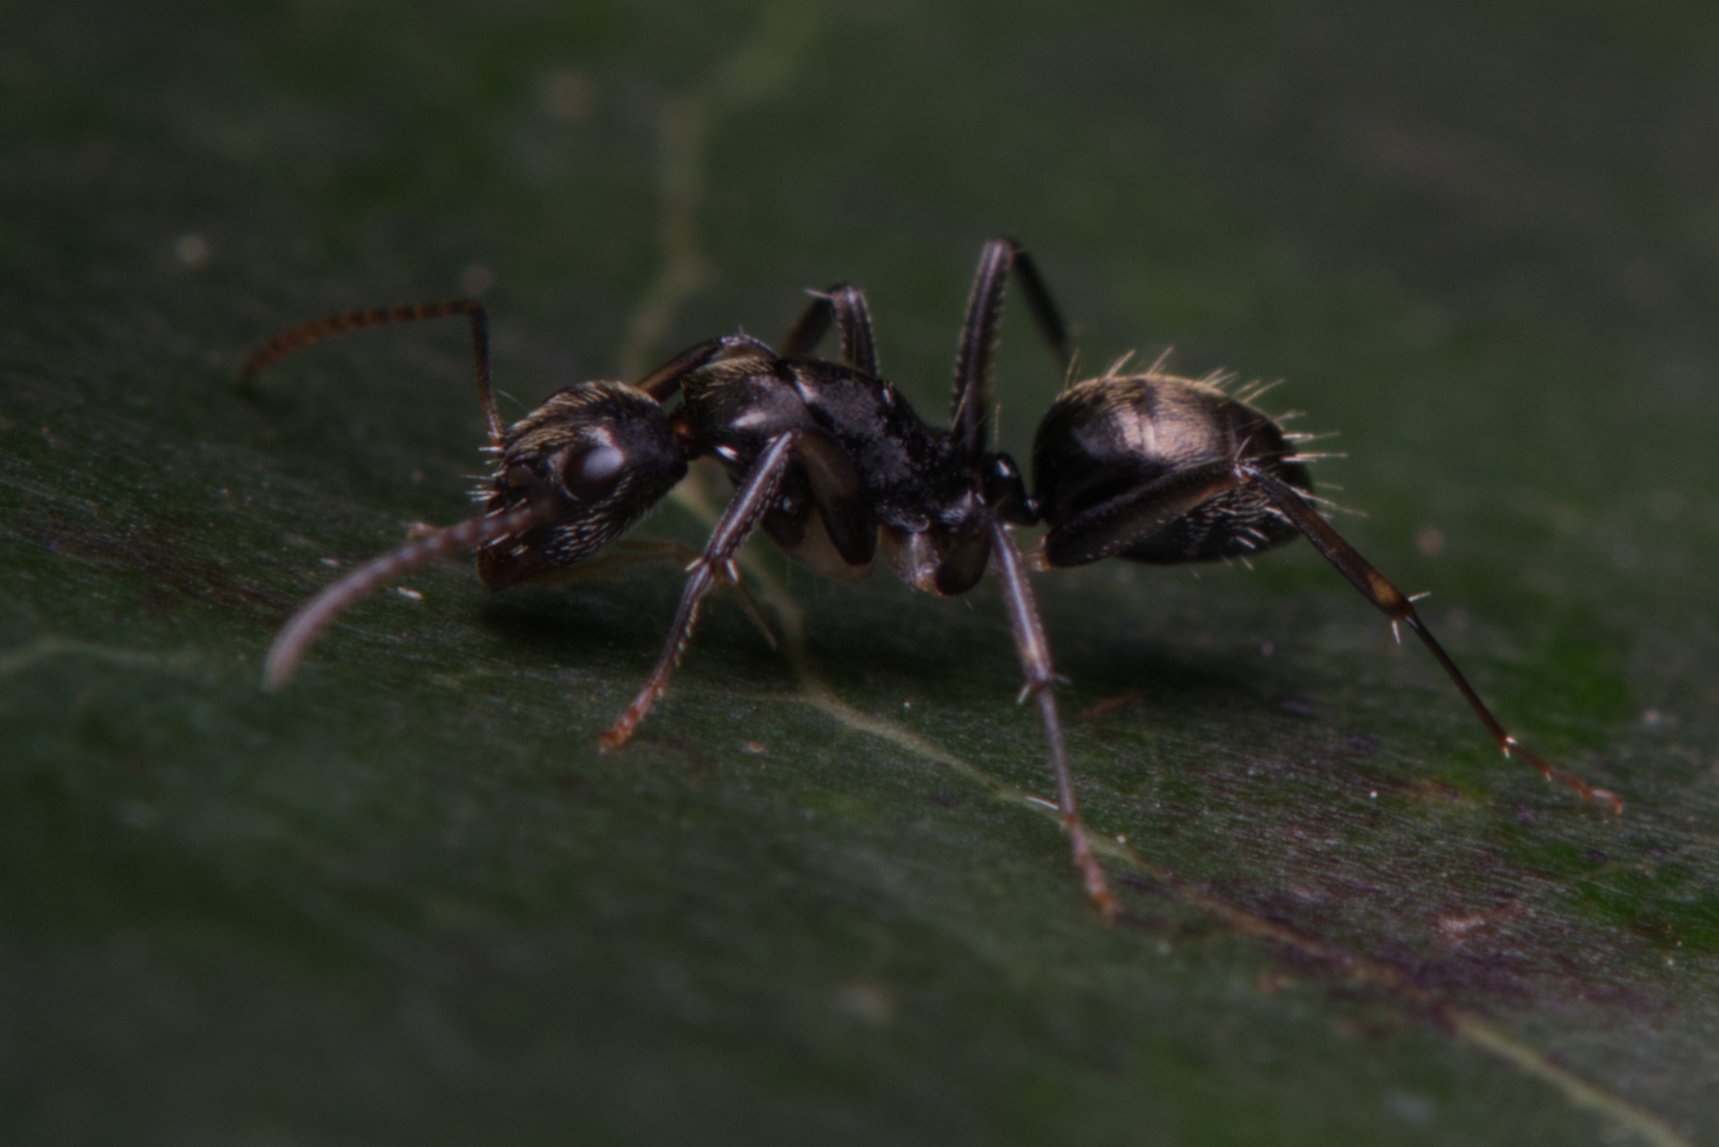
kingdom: Animalia
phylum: Arthropoda
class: Insecta
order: Hymenoptera
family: Formicidae
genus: Camponotus
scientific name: Camponotus froggatti
